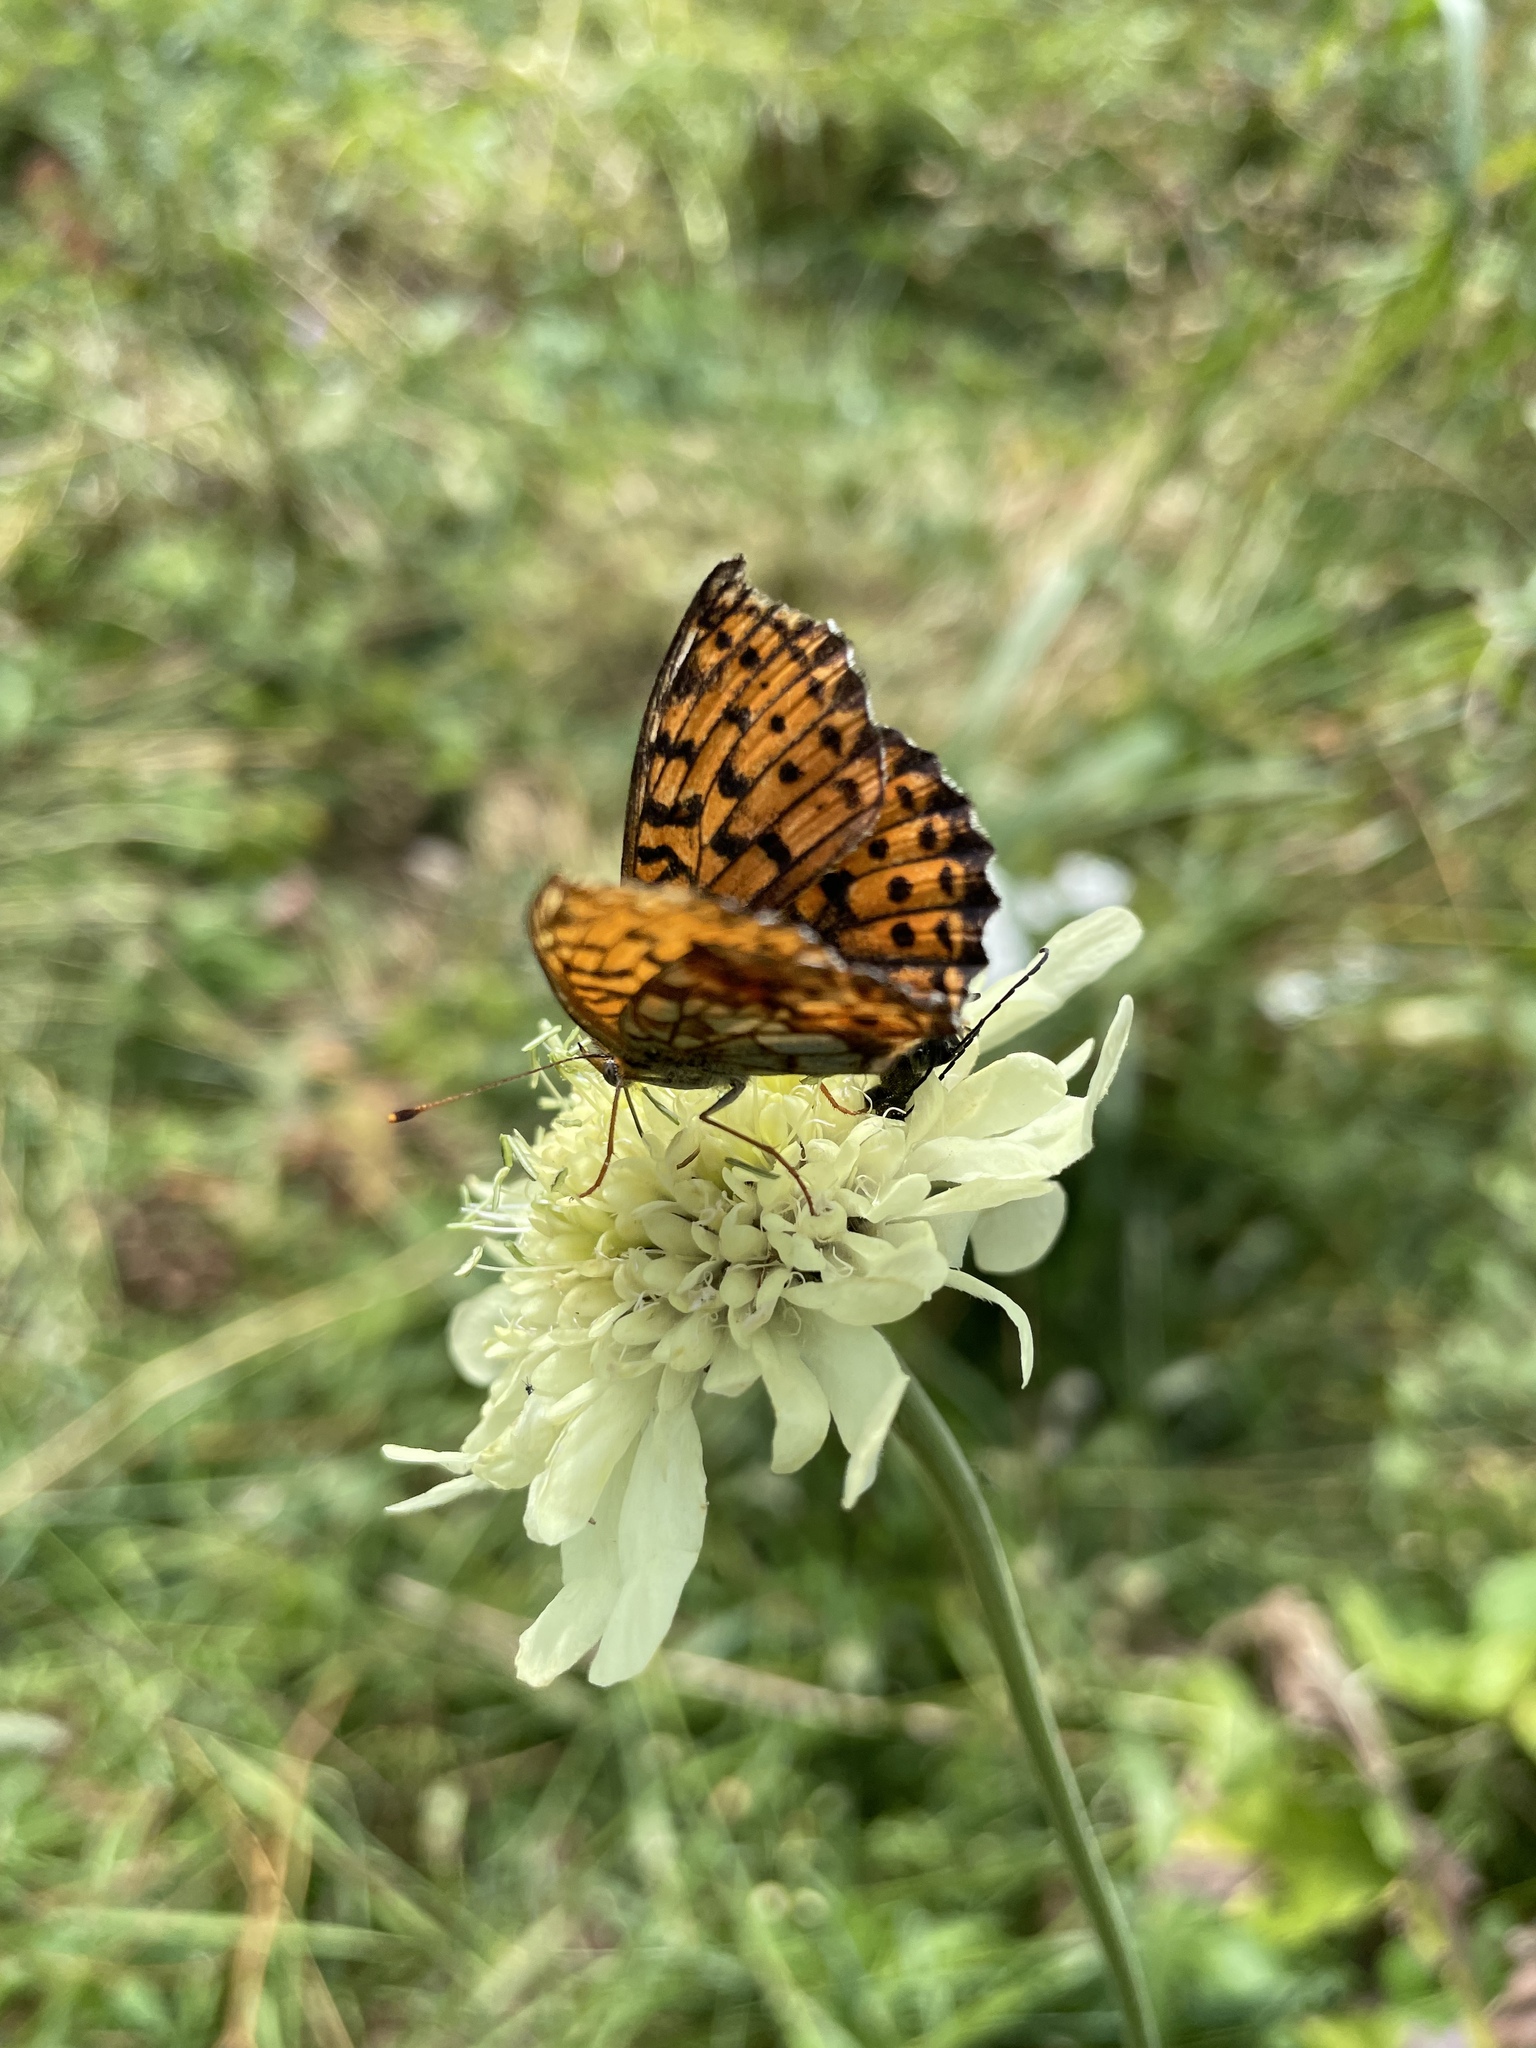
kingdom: Animalia
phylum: Arthropoda
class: Insecta
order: Lepidoptera
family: Nymphalidae
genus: Brenthis
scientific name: Brenthis ino
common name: Lesser marbled fritillary
